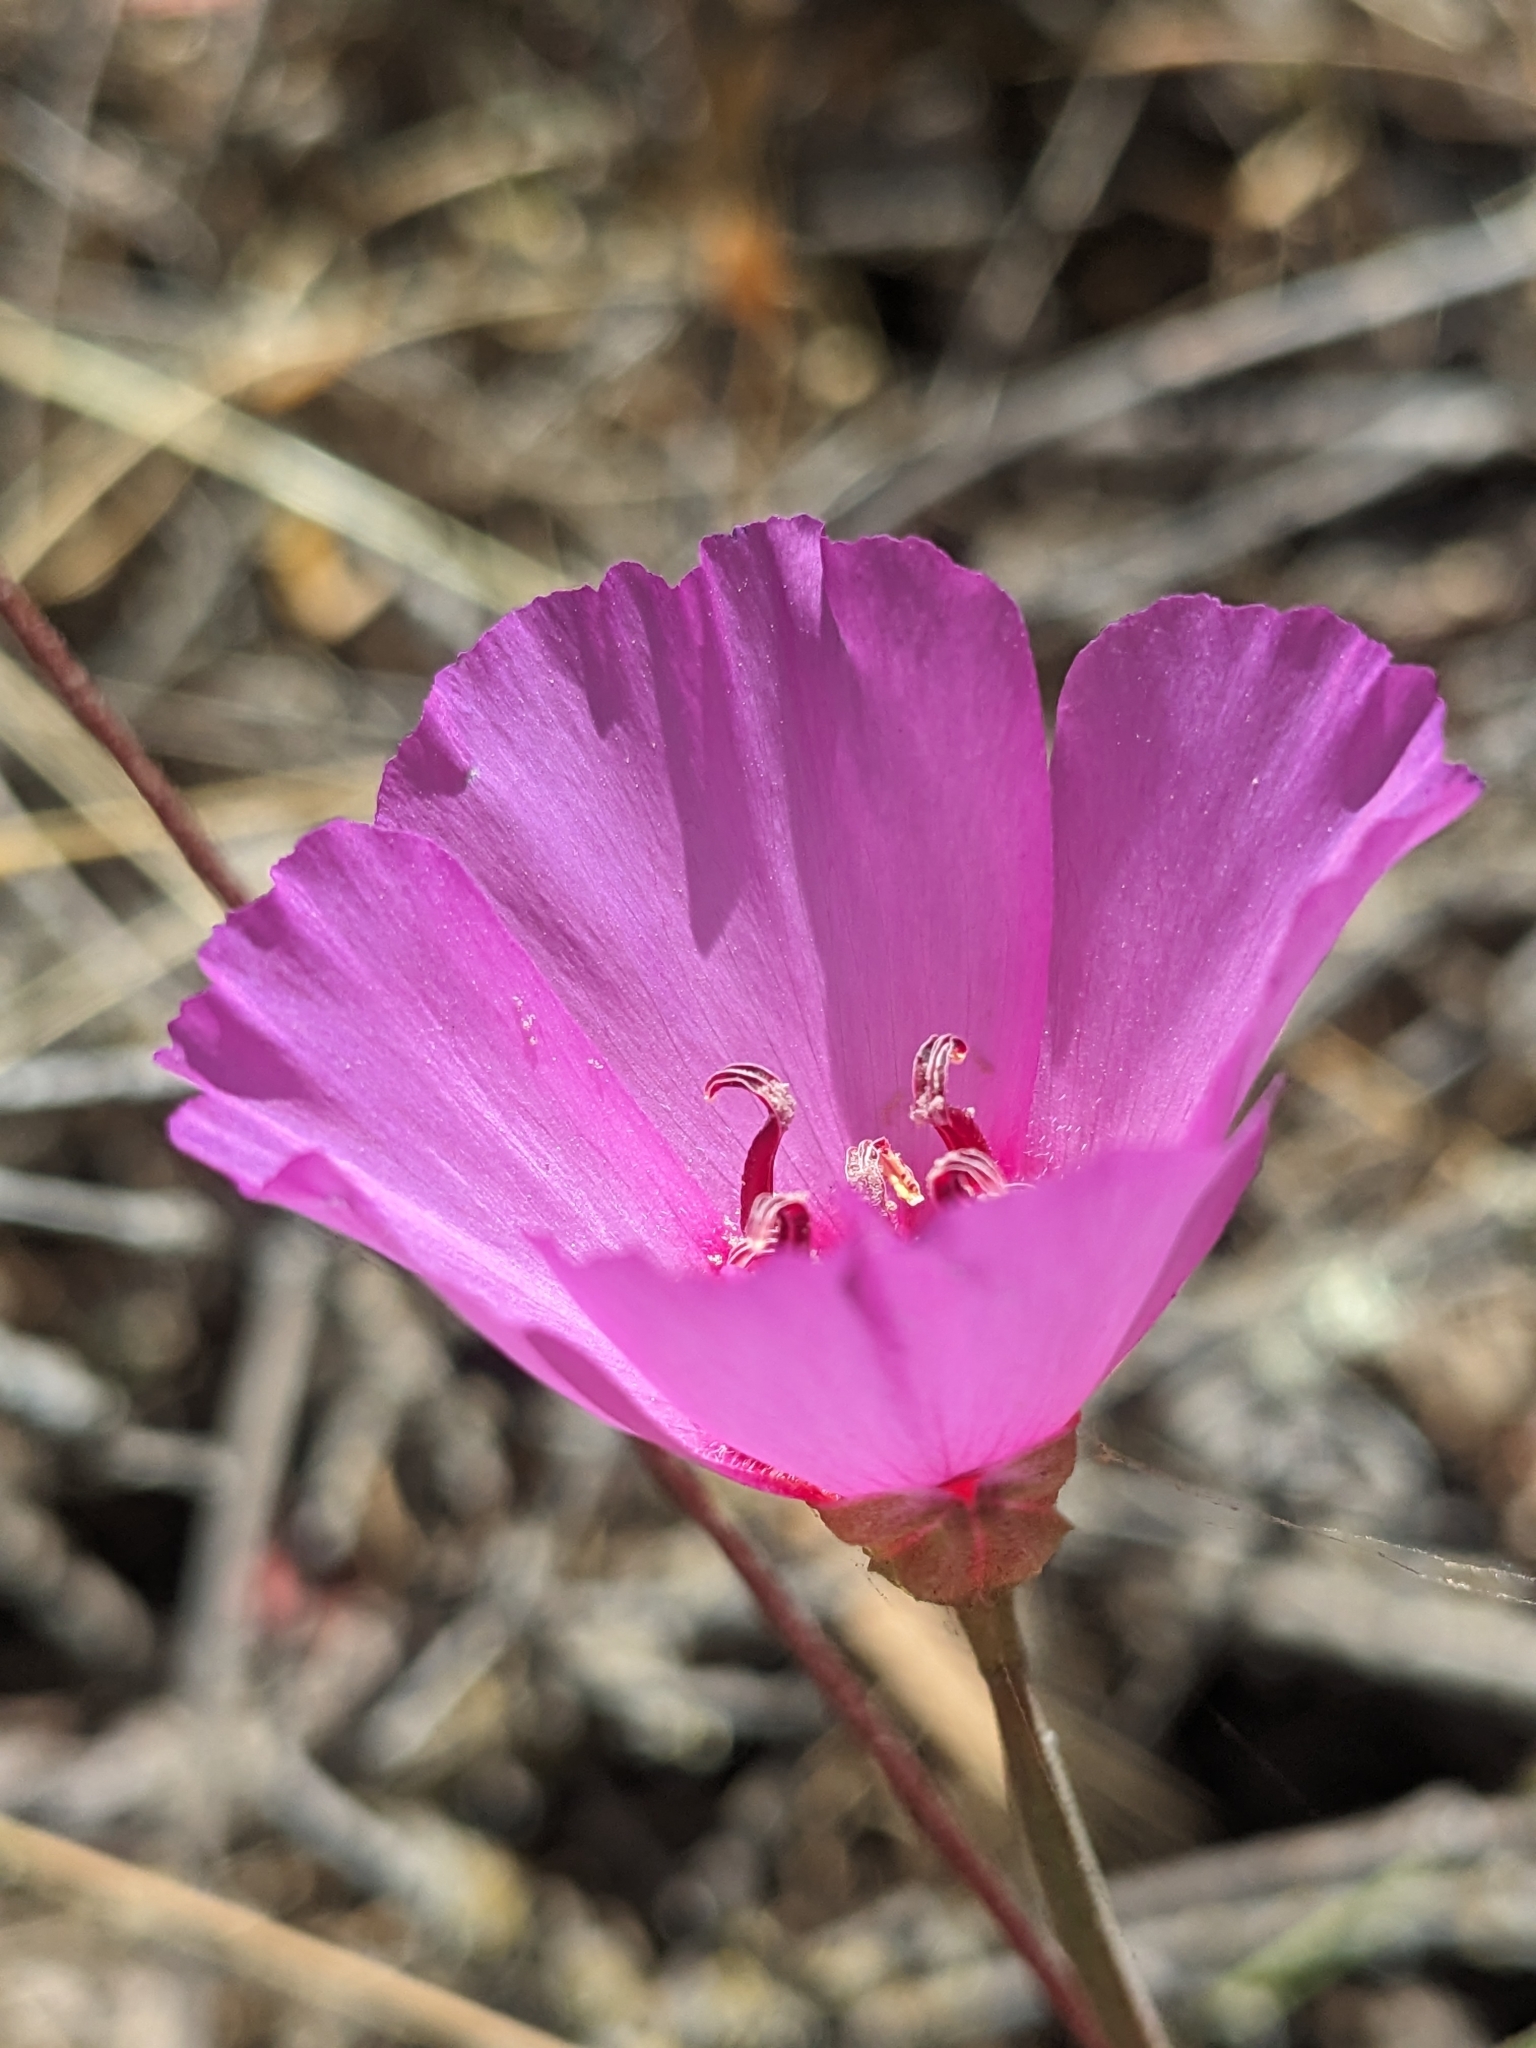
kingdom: Plantae
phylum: Tracheophyta
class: Magnoliopsida
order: Myrtales
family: Onagraceae
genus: Clarkia
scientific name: Clarkia rubicunda
